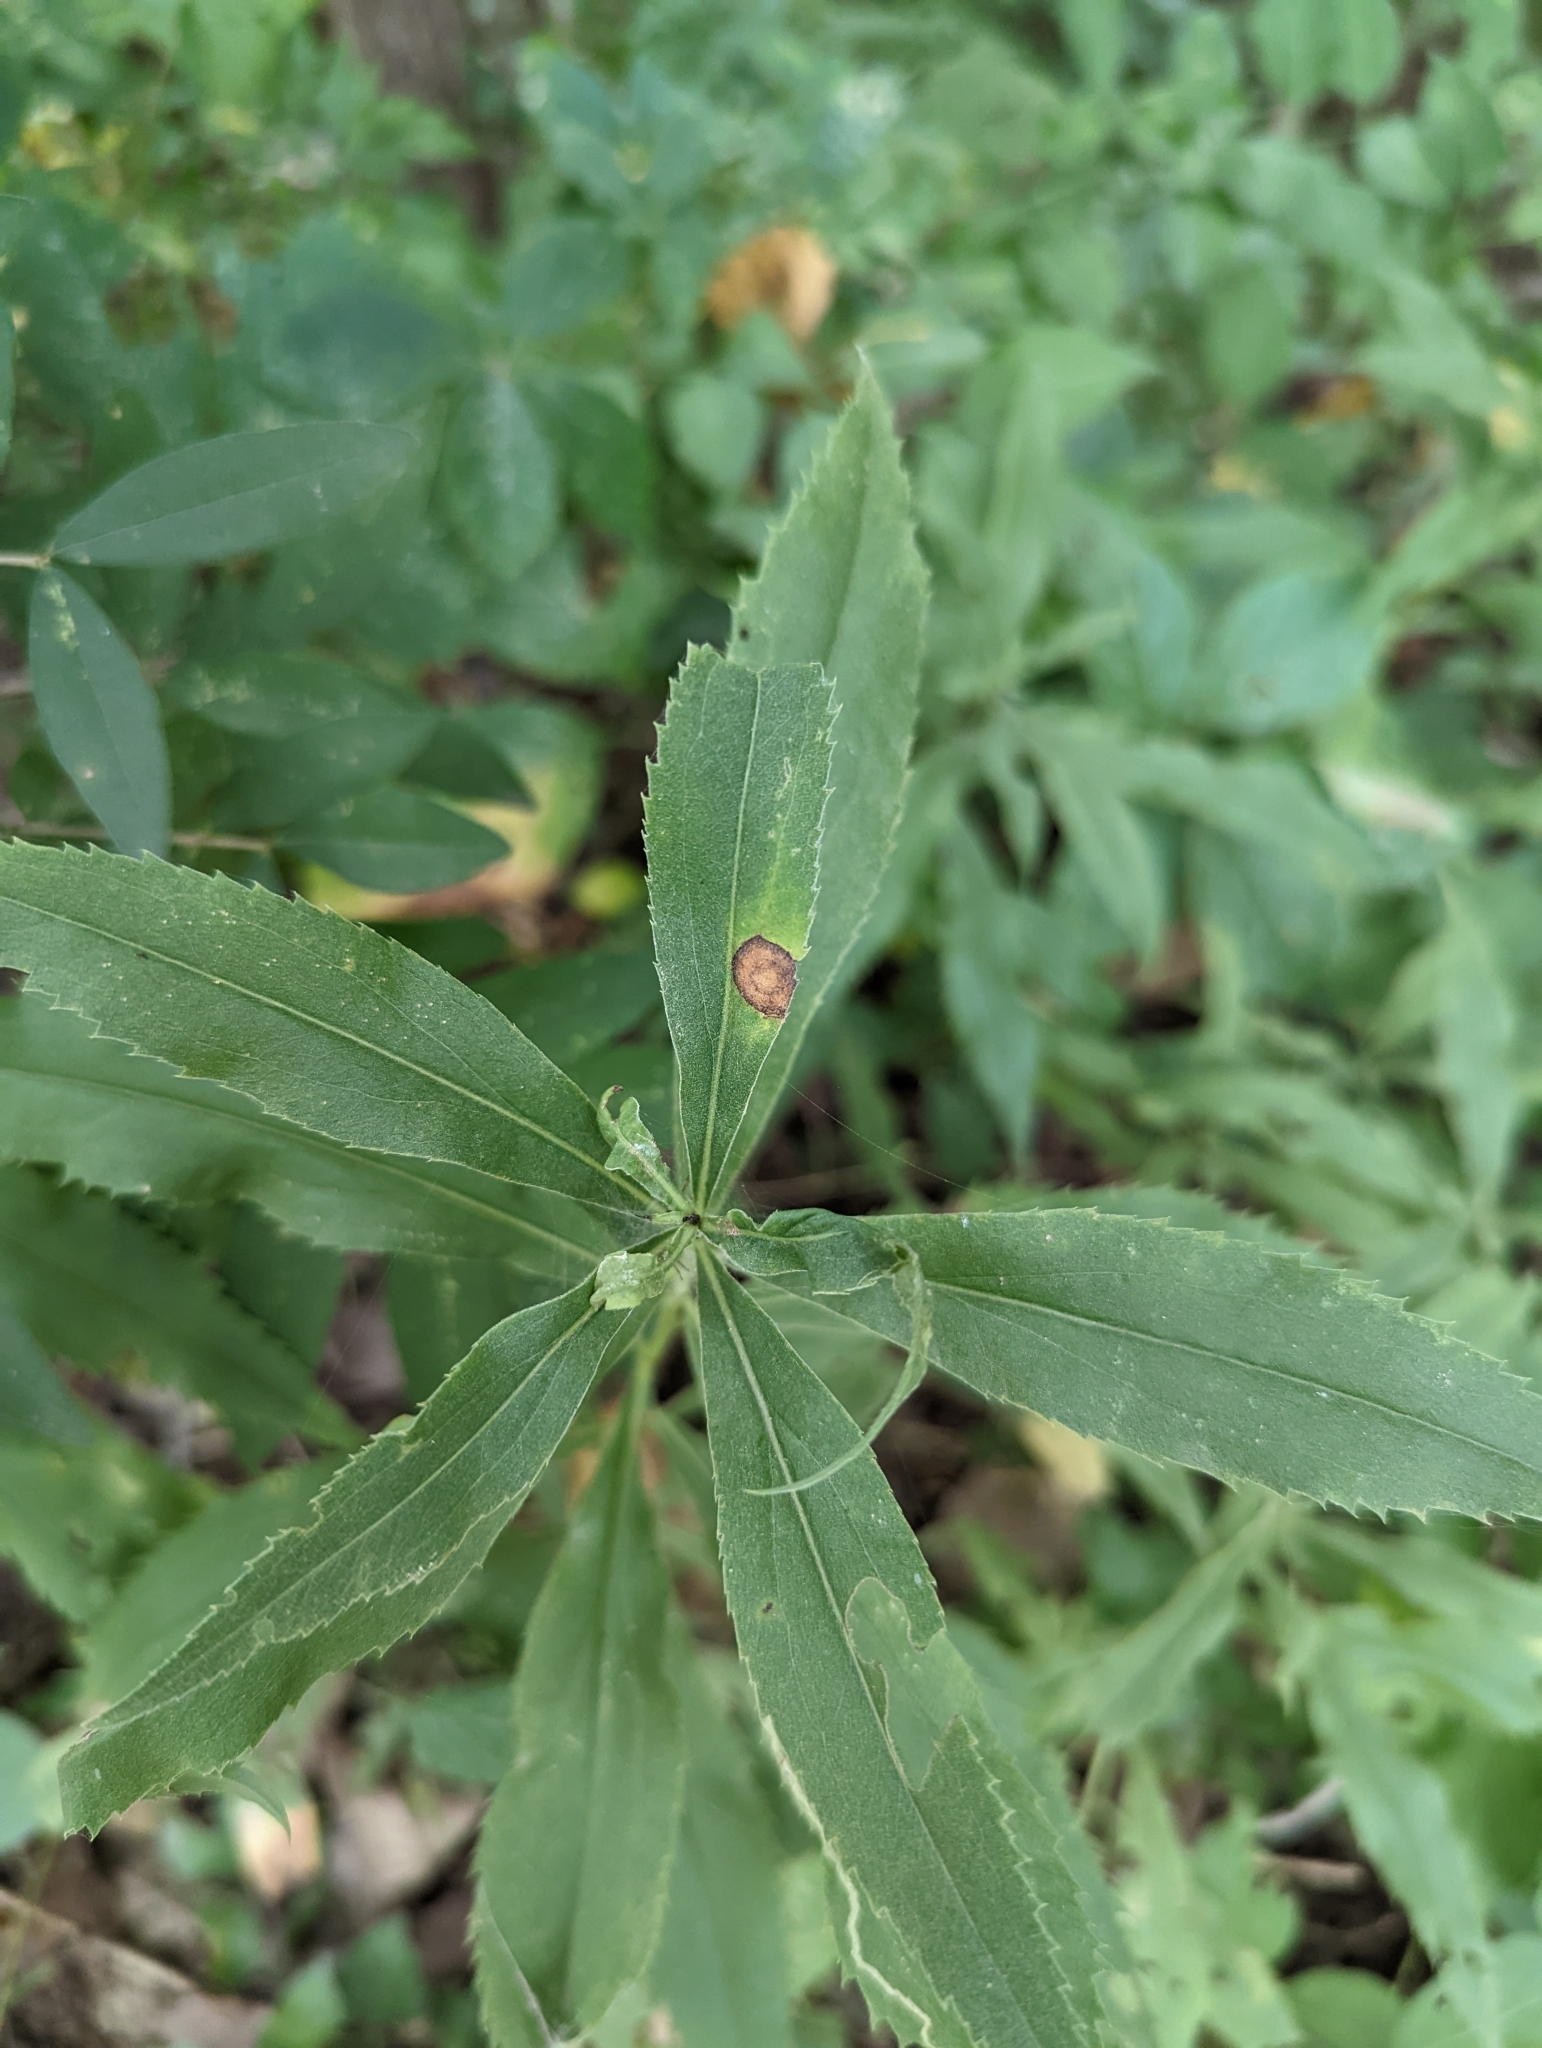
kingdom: Animalia
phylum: Arthropoda
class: Insecta
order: Diptera
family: Cecidomyiidae
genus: Asteromyia
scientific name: Asteromyia carbonifera
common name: Carbonifera goldenrod gall midge
